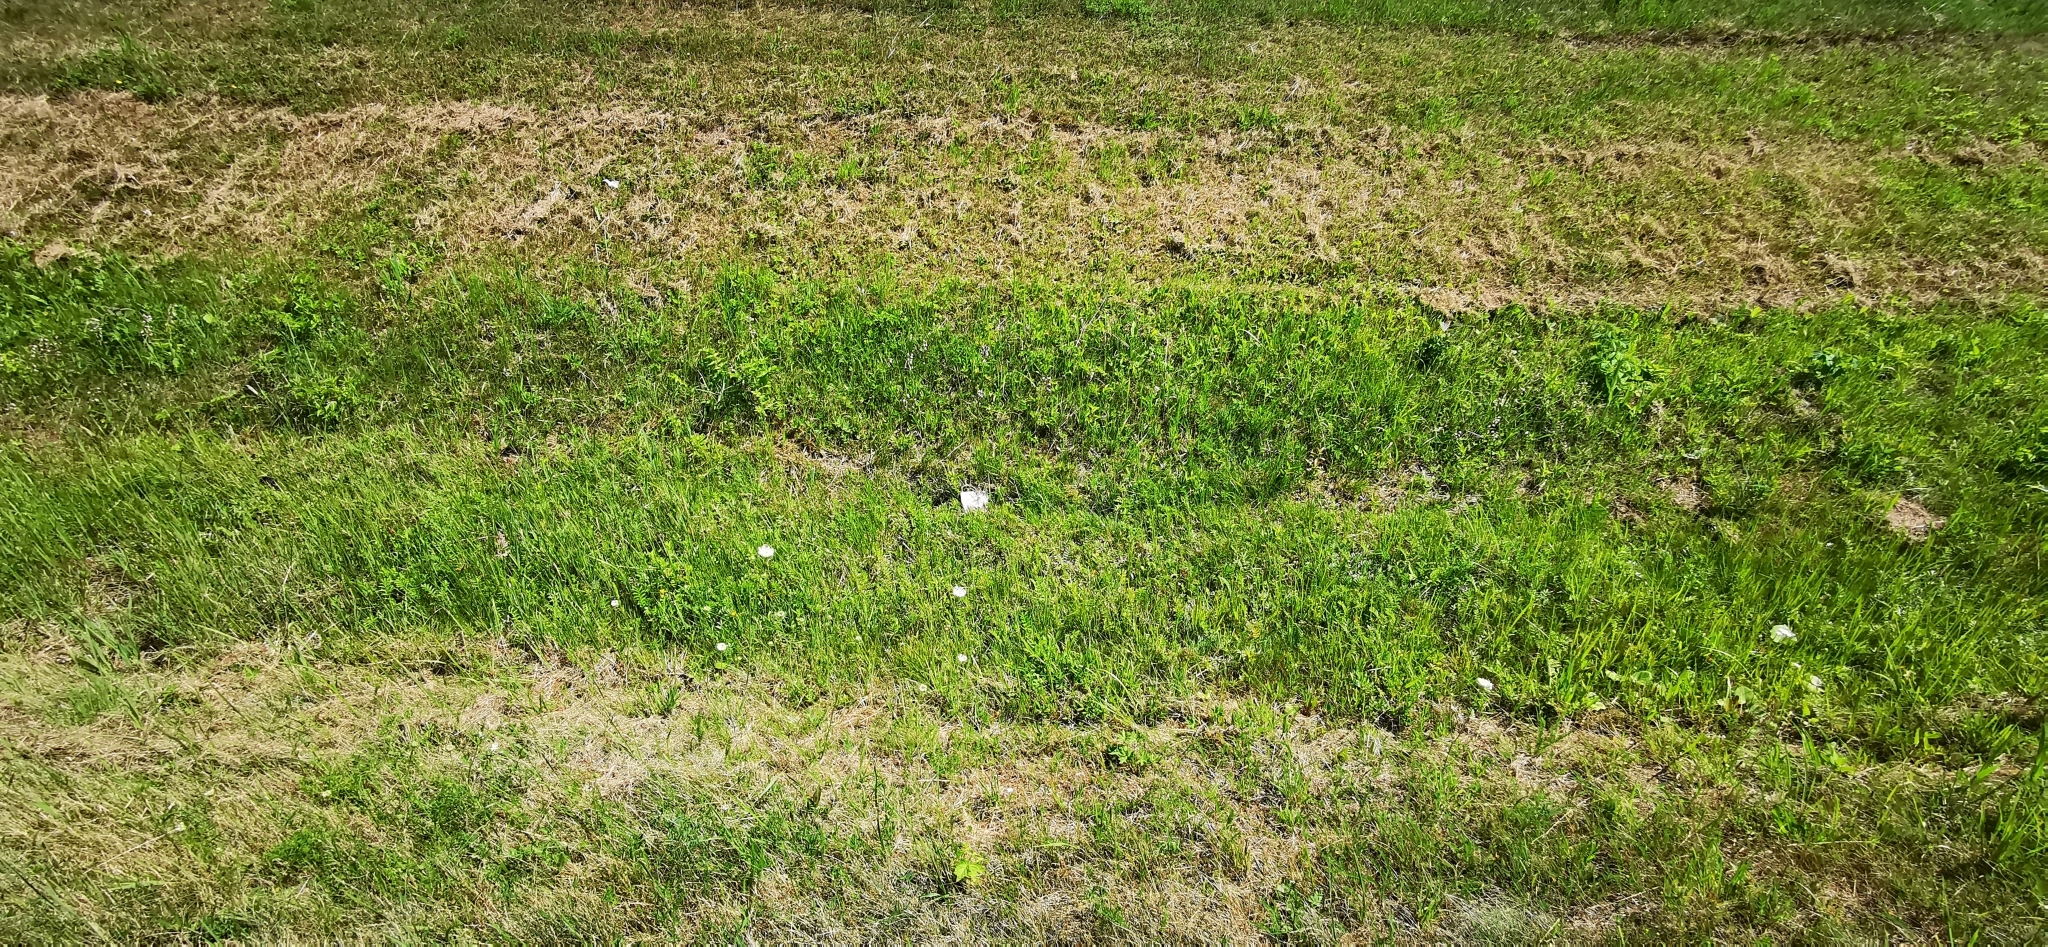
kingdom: Plantae
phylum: Tracheophyta
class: Liliopsida
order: Asparagales
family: Orchidaceae
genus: Epipactis
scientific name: Epipactis palustris
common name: Marsh helleborine
